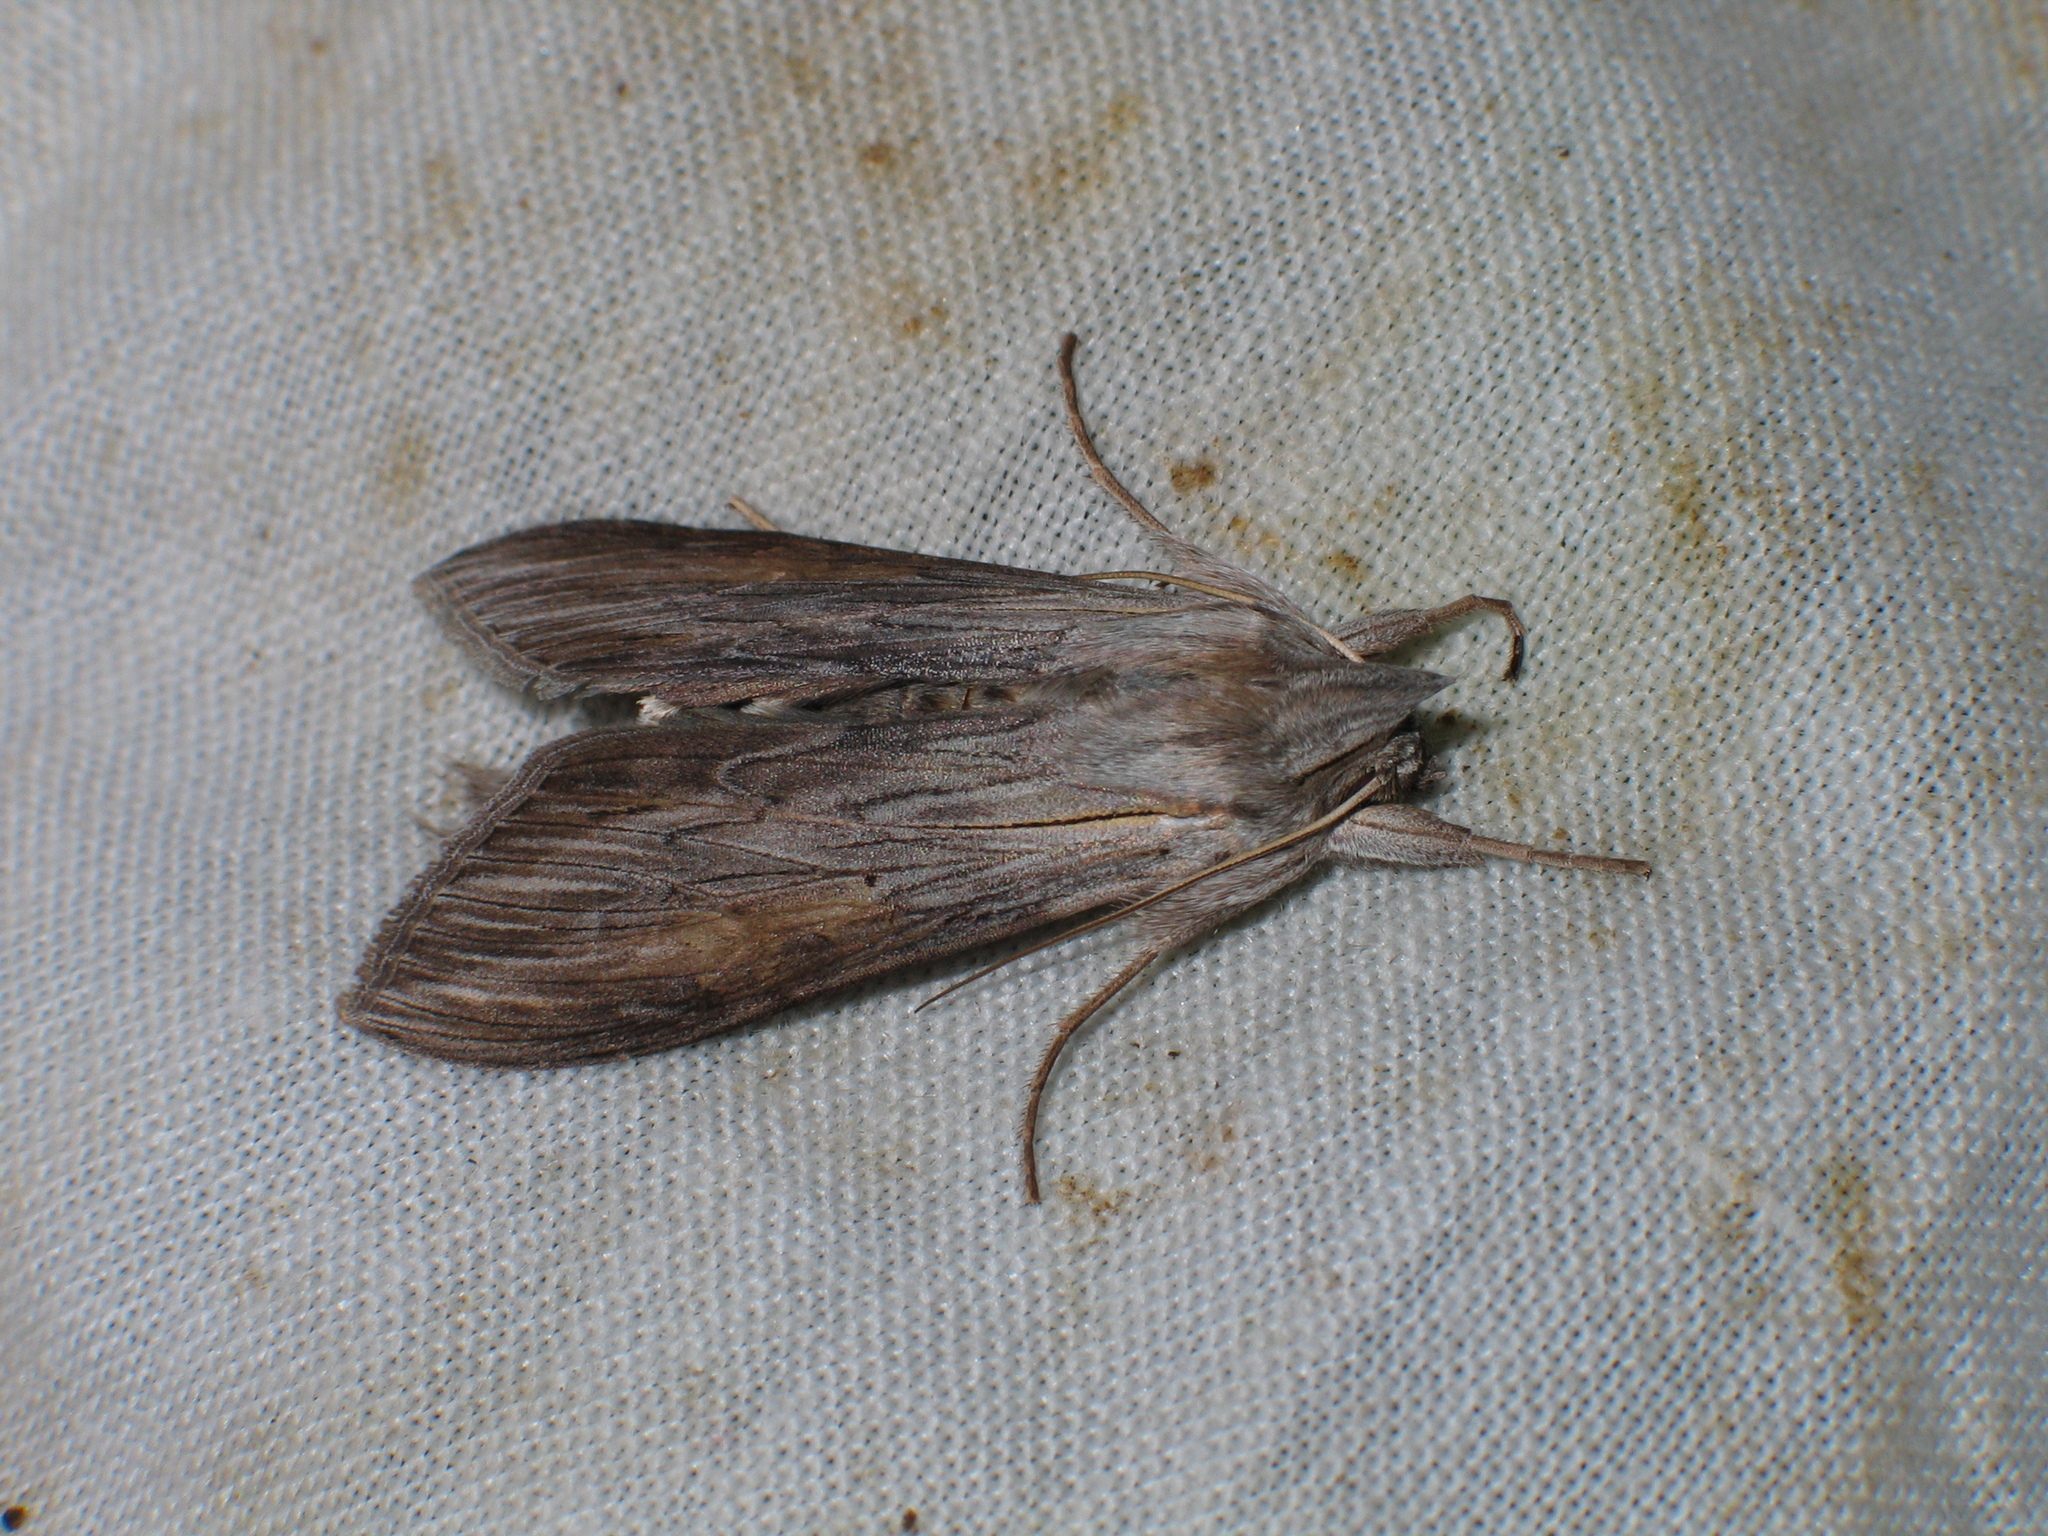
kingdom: Animalia
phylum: Arthropoda
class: Insecta
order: Lepidoptera
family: Noctuidae
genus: Cucullia
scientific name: Cucullia umbratica
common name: Shark
